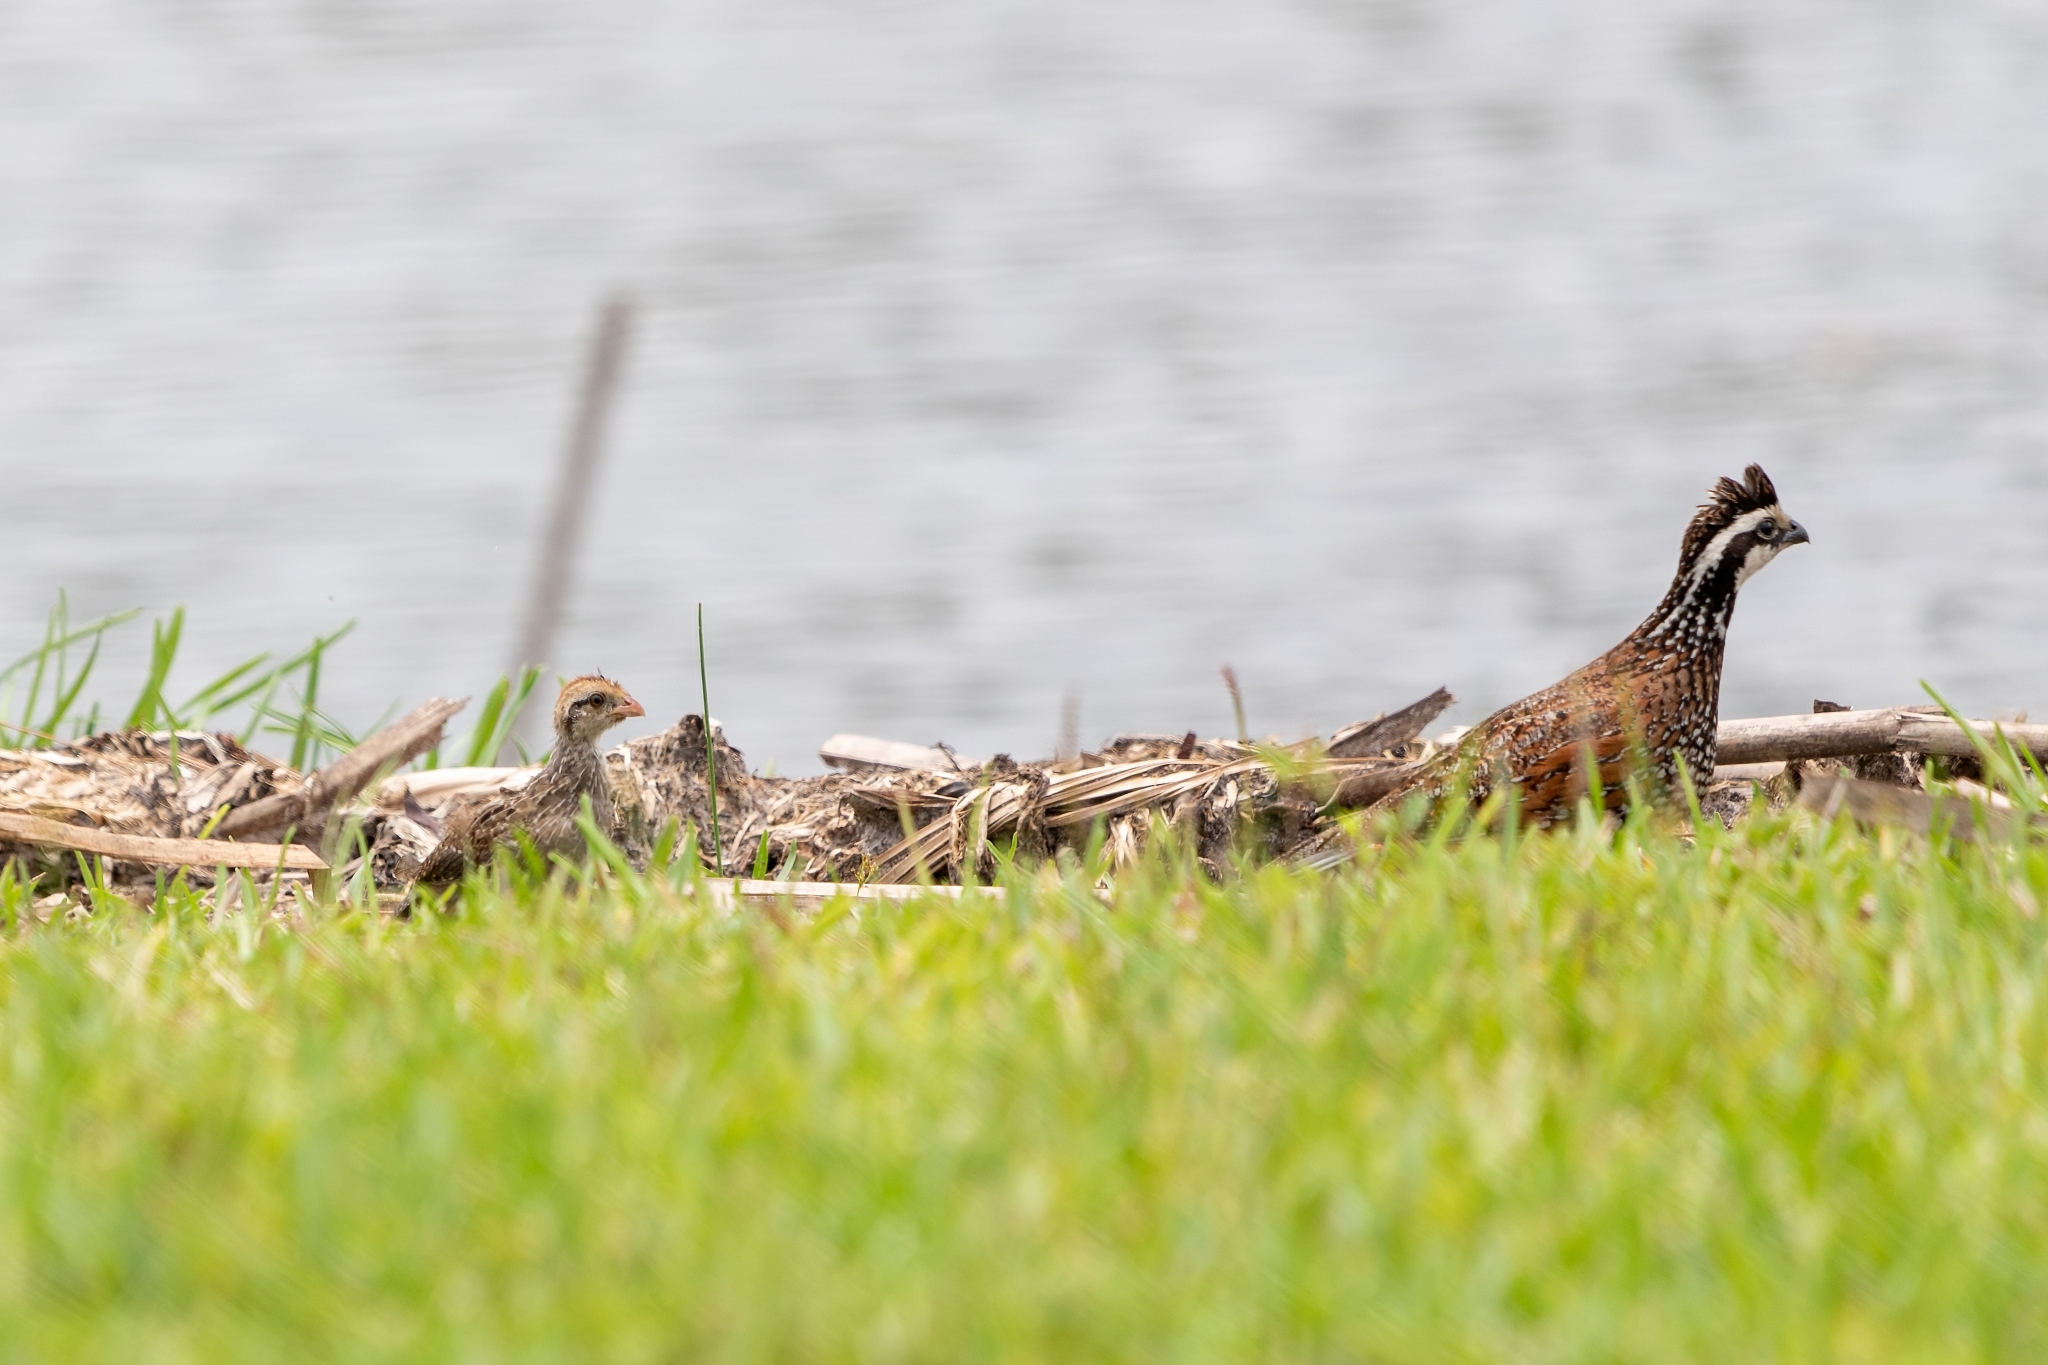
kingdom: Animalia
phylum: Chordata
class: Aves
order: Galliformes
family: Odontophoridae
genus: Colinus
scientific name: Colinus virginianus
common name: Northern bobwhite
